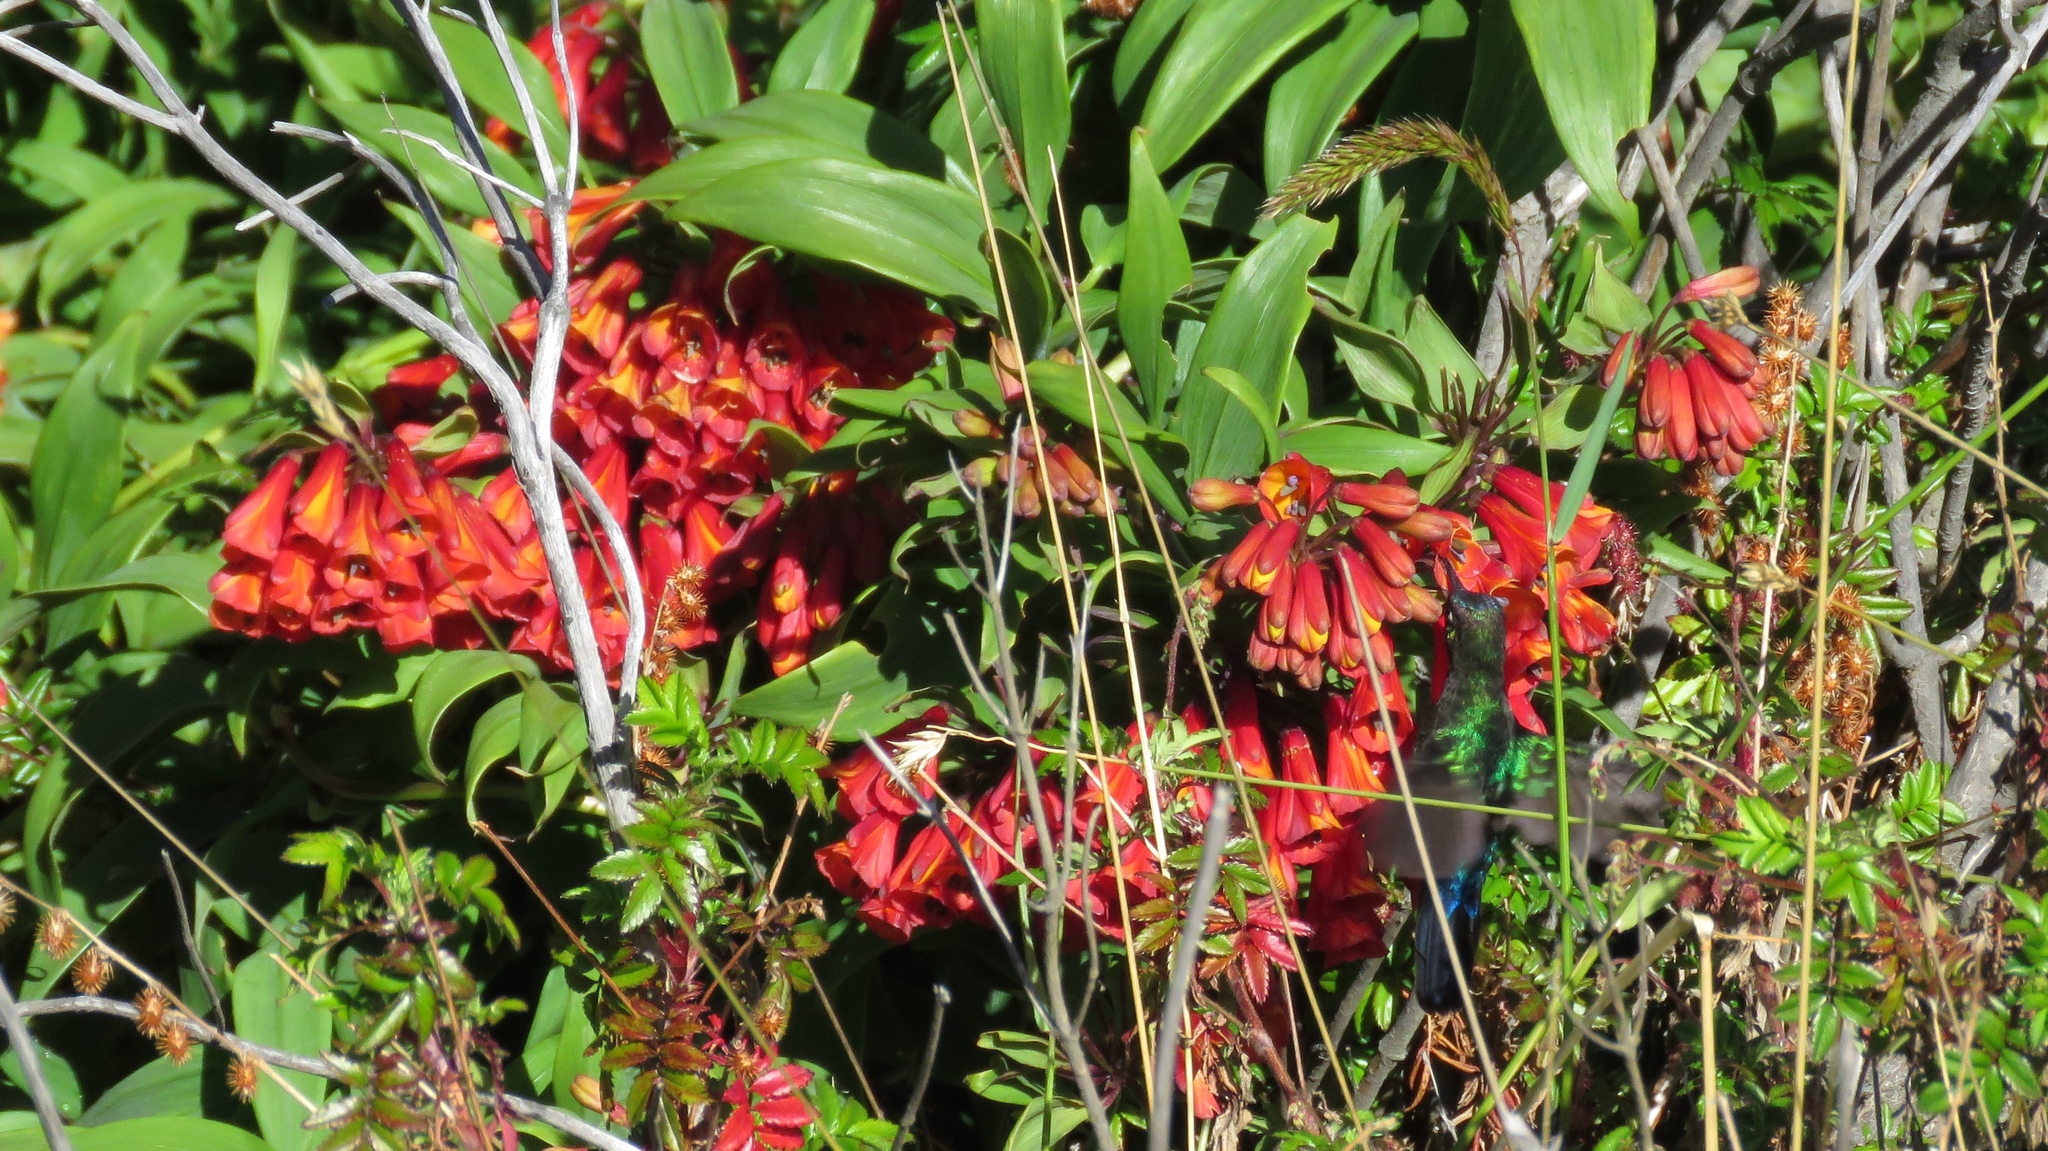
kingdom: Plantae
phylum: Tracheophyta
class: Liliopsida
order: Liliales
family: Alstroemeriaceae
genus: Bomarea
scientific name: Bomarea hirsuta
